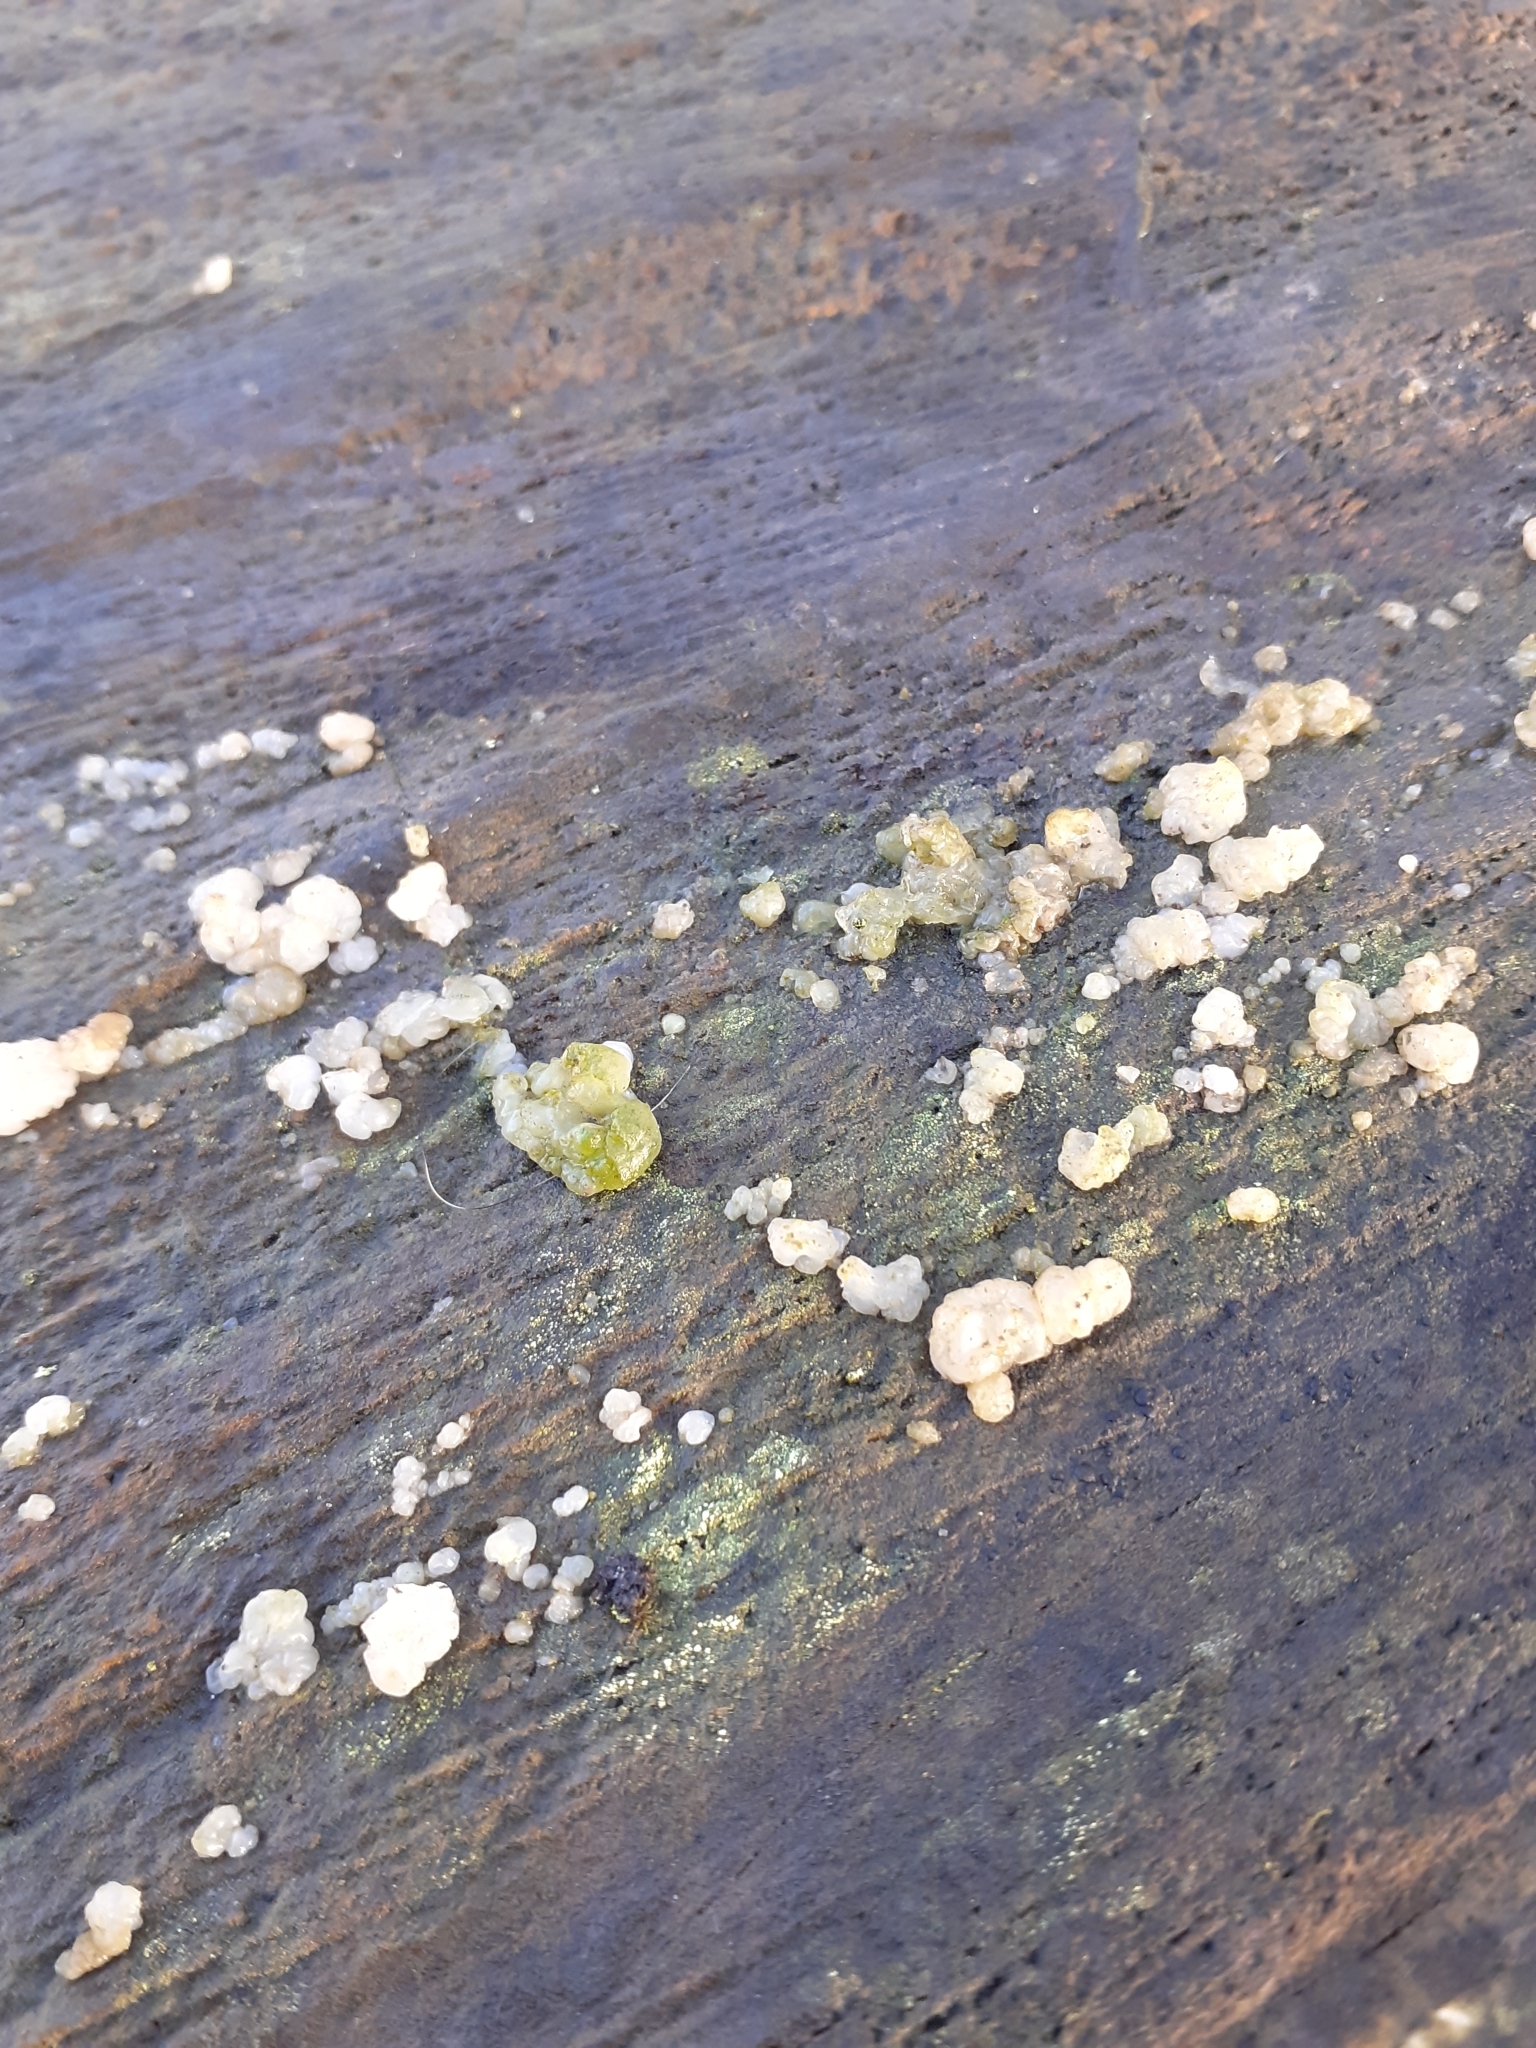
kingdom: Fungi
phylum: Basidiomycota
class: Agaricomycetes
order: Auriculariales
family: Hyaloriaceae
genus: Myxarium
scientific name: Myxarium nucleatum
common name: Crystal brain fungus
